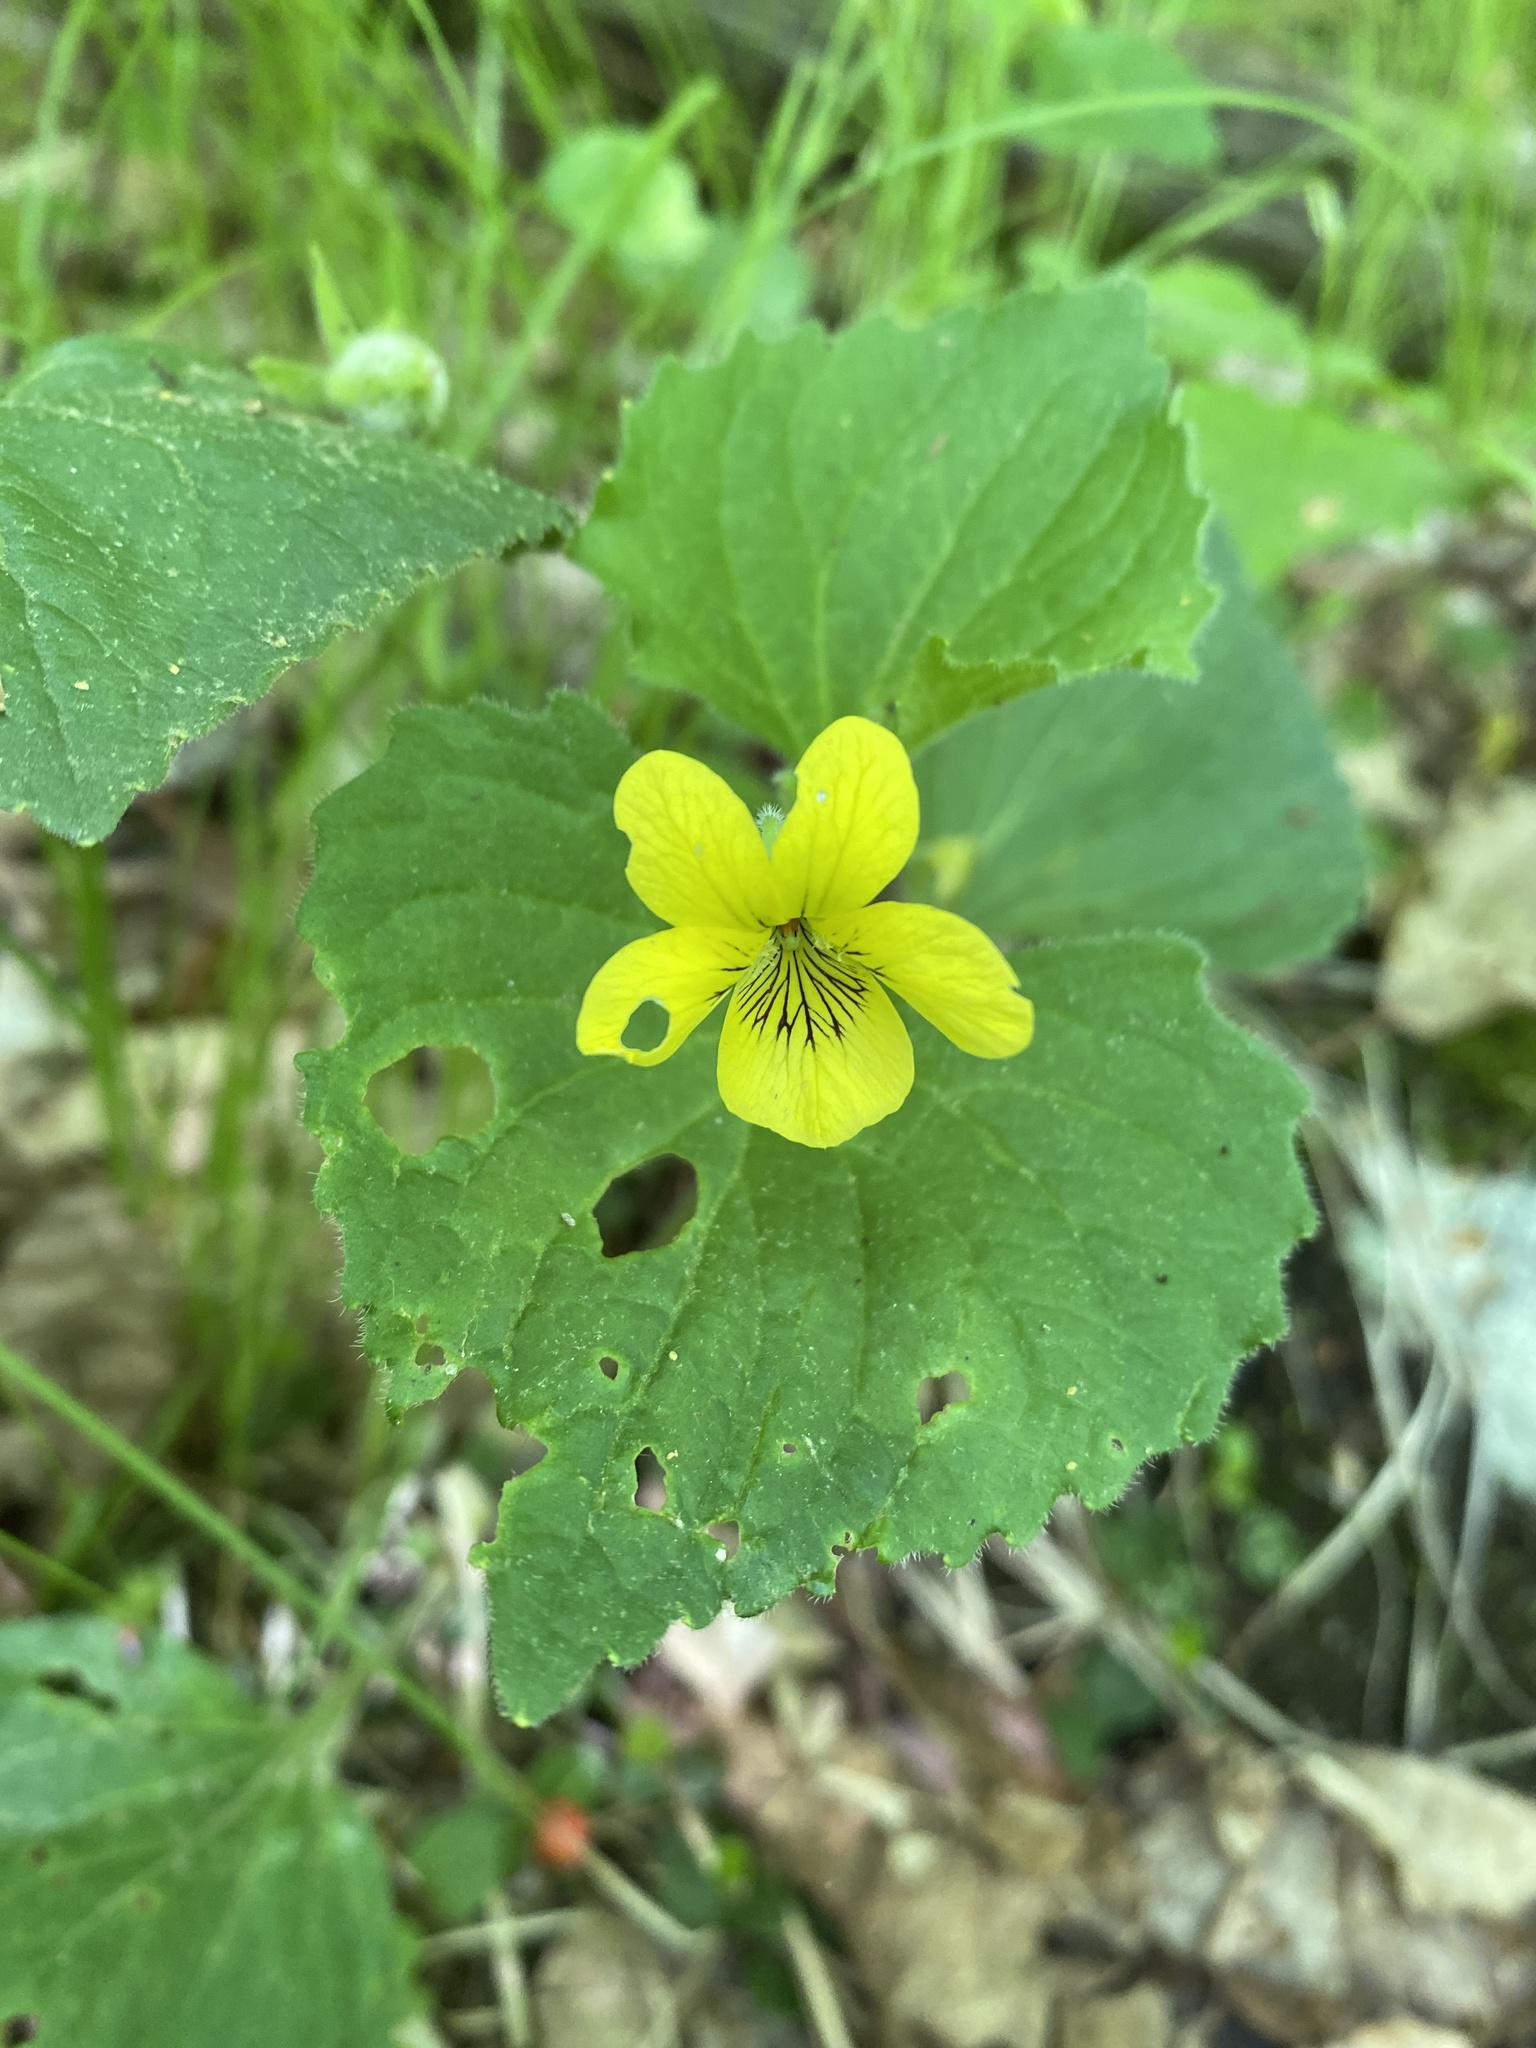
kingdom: Plantae
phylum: Tracheophyta
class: Magnoliopsida
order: Malpighiales
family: Violaceae
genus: Viola
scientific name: Viola eriocarpa
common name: Smooth yellow violet
